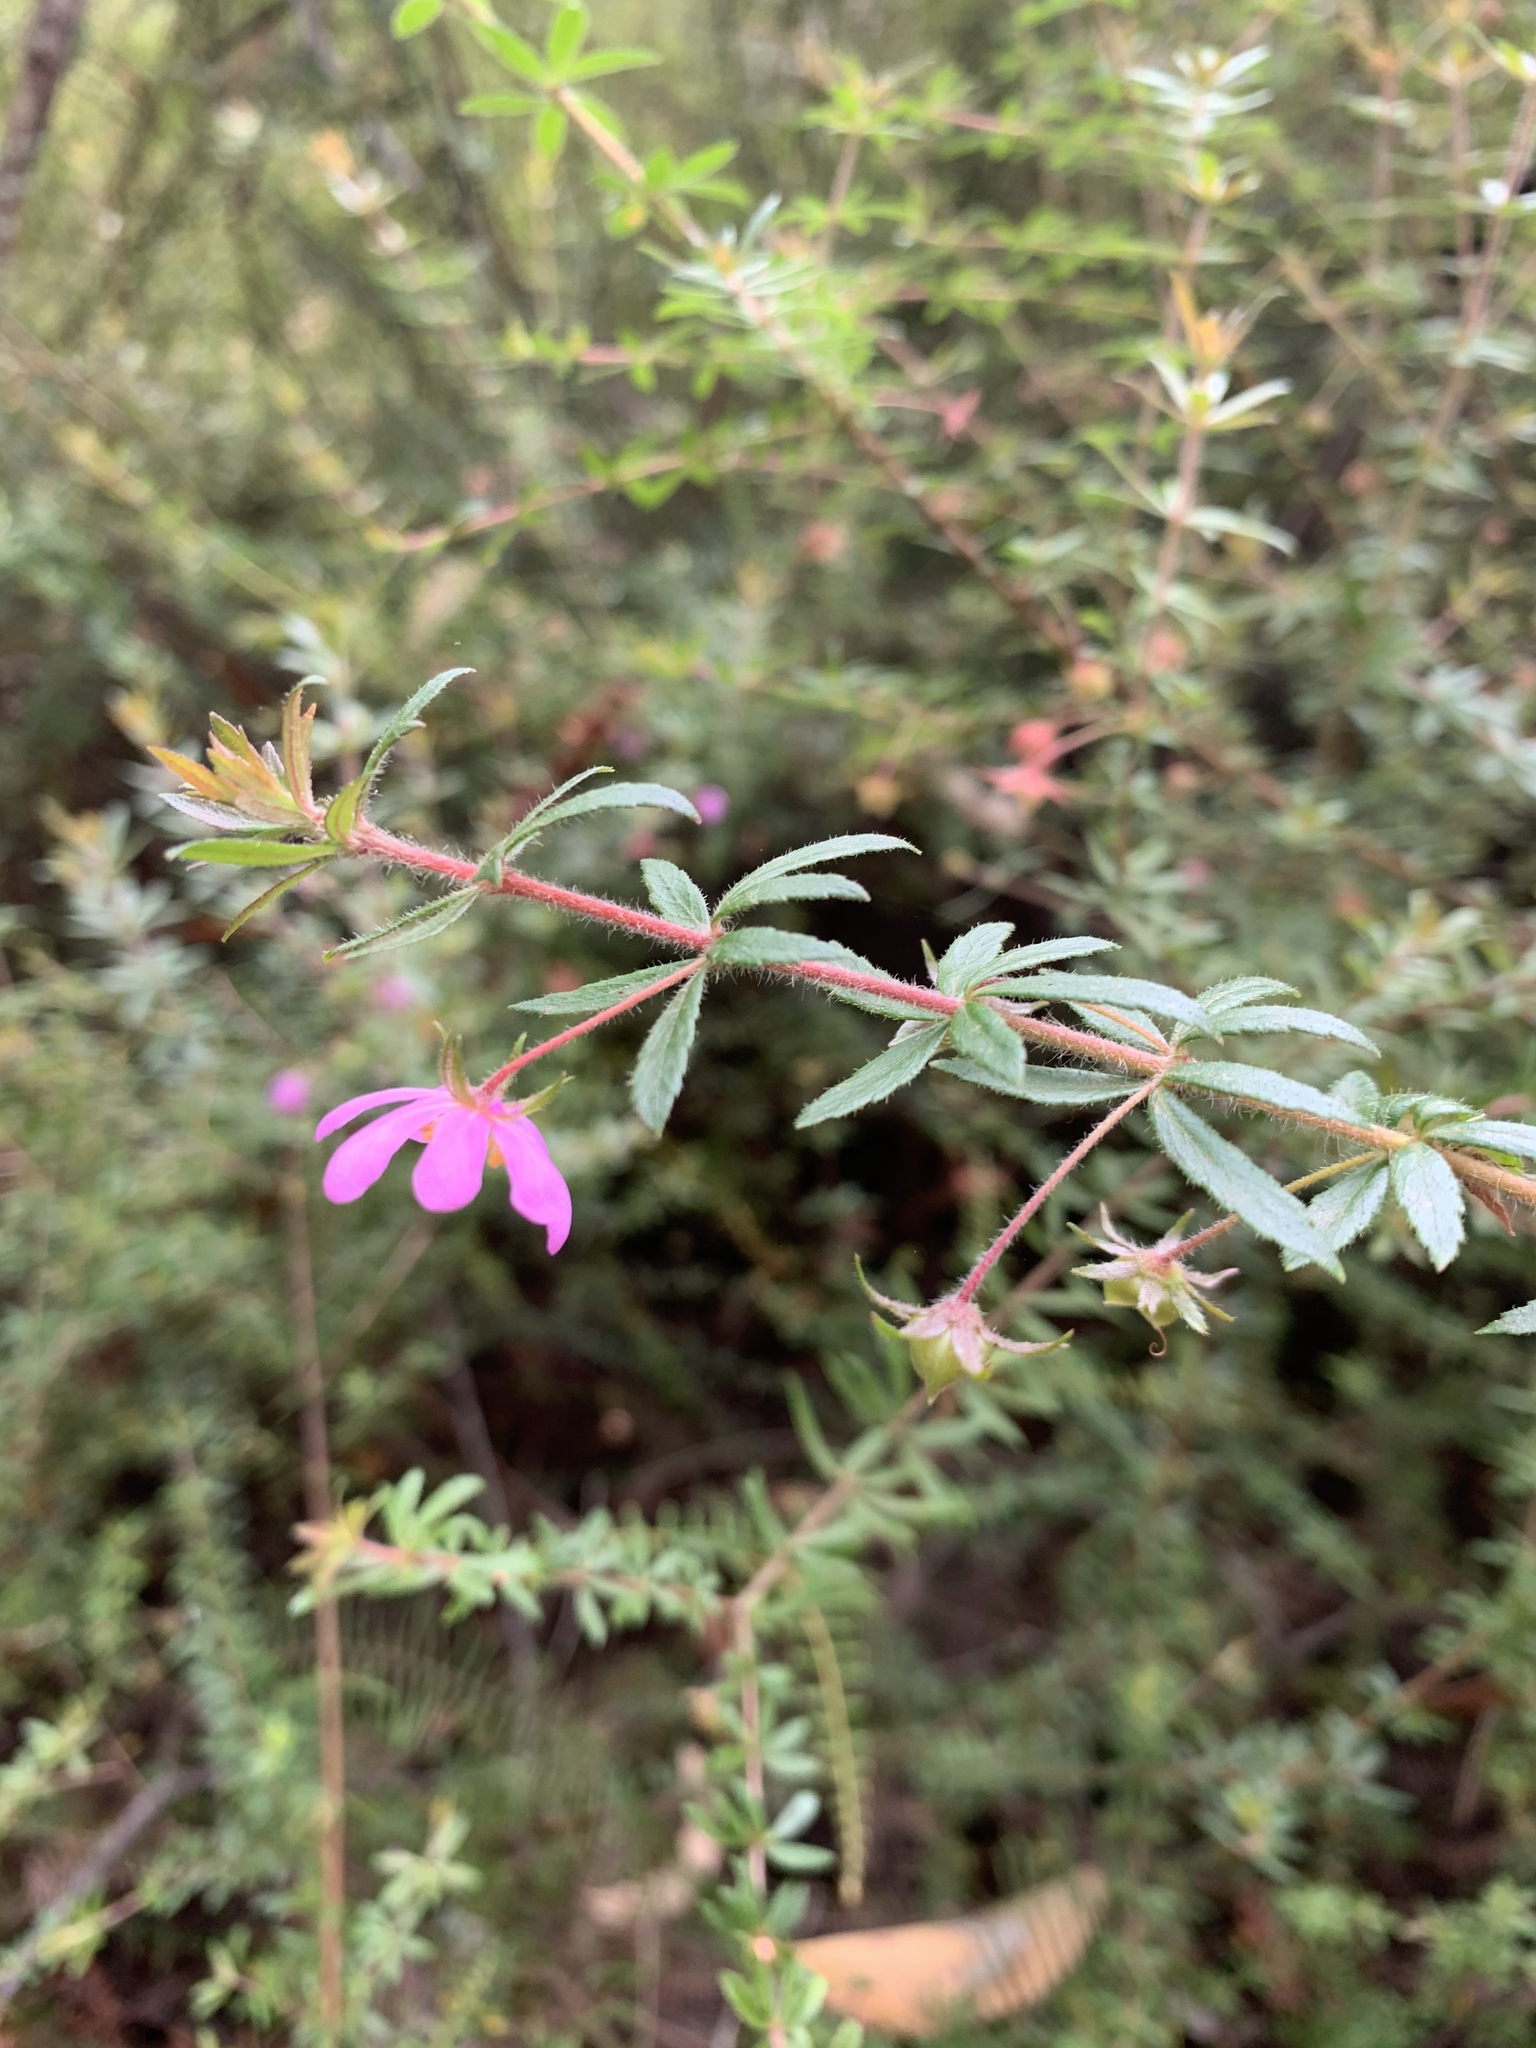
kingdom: Plantae
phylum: Tracheophyta
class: Magnoliopsida
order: Oxalidales
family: Cunoniaceae
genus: Bauera
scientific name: Bauera rubioides
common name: River-rose
